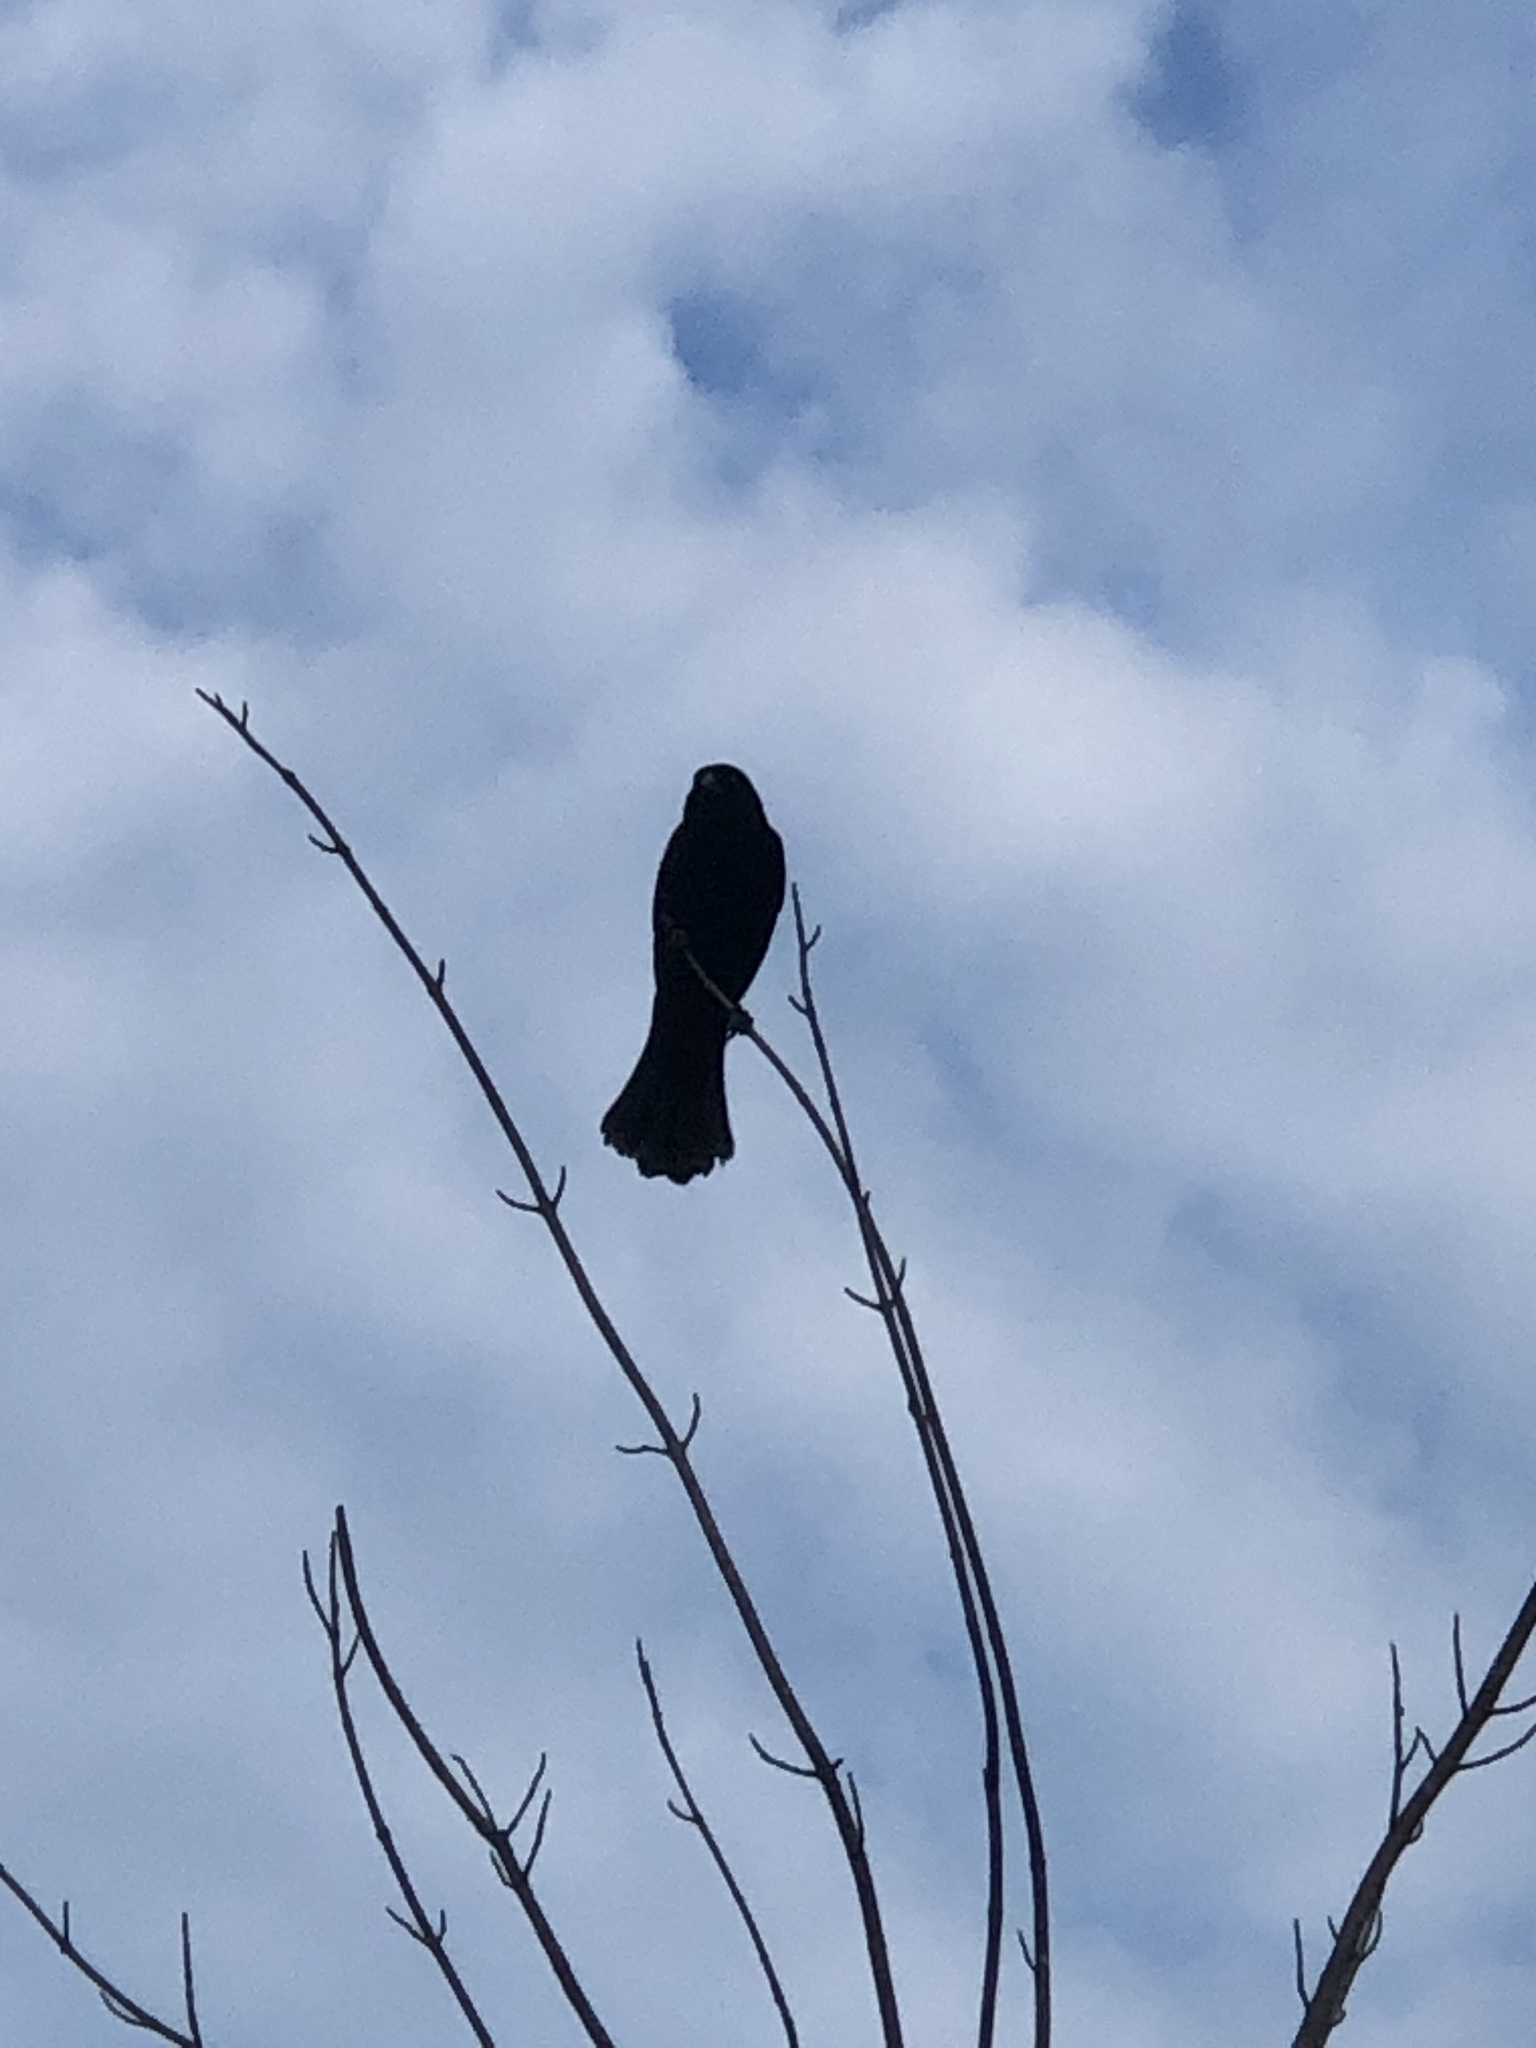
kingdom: Animalia
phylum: Chordata
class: Aves
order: Passeriformes
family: Icteridae
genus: Agelaius
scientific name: Agelaius phoeniceus
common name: Red-winged blackbird
